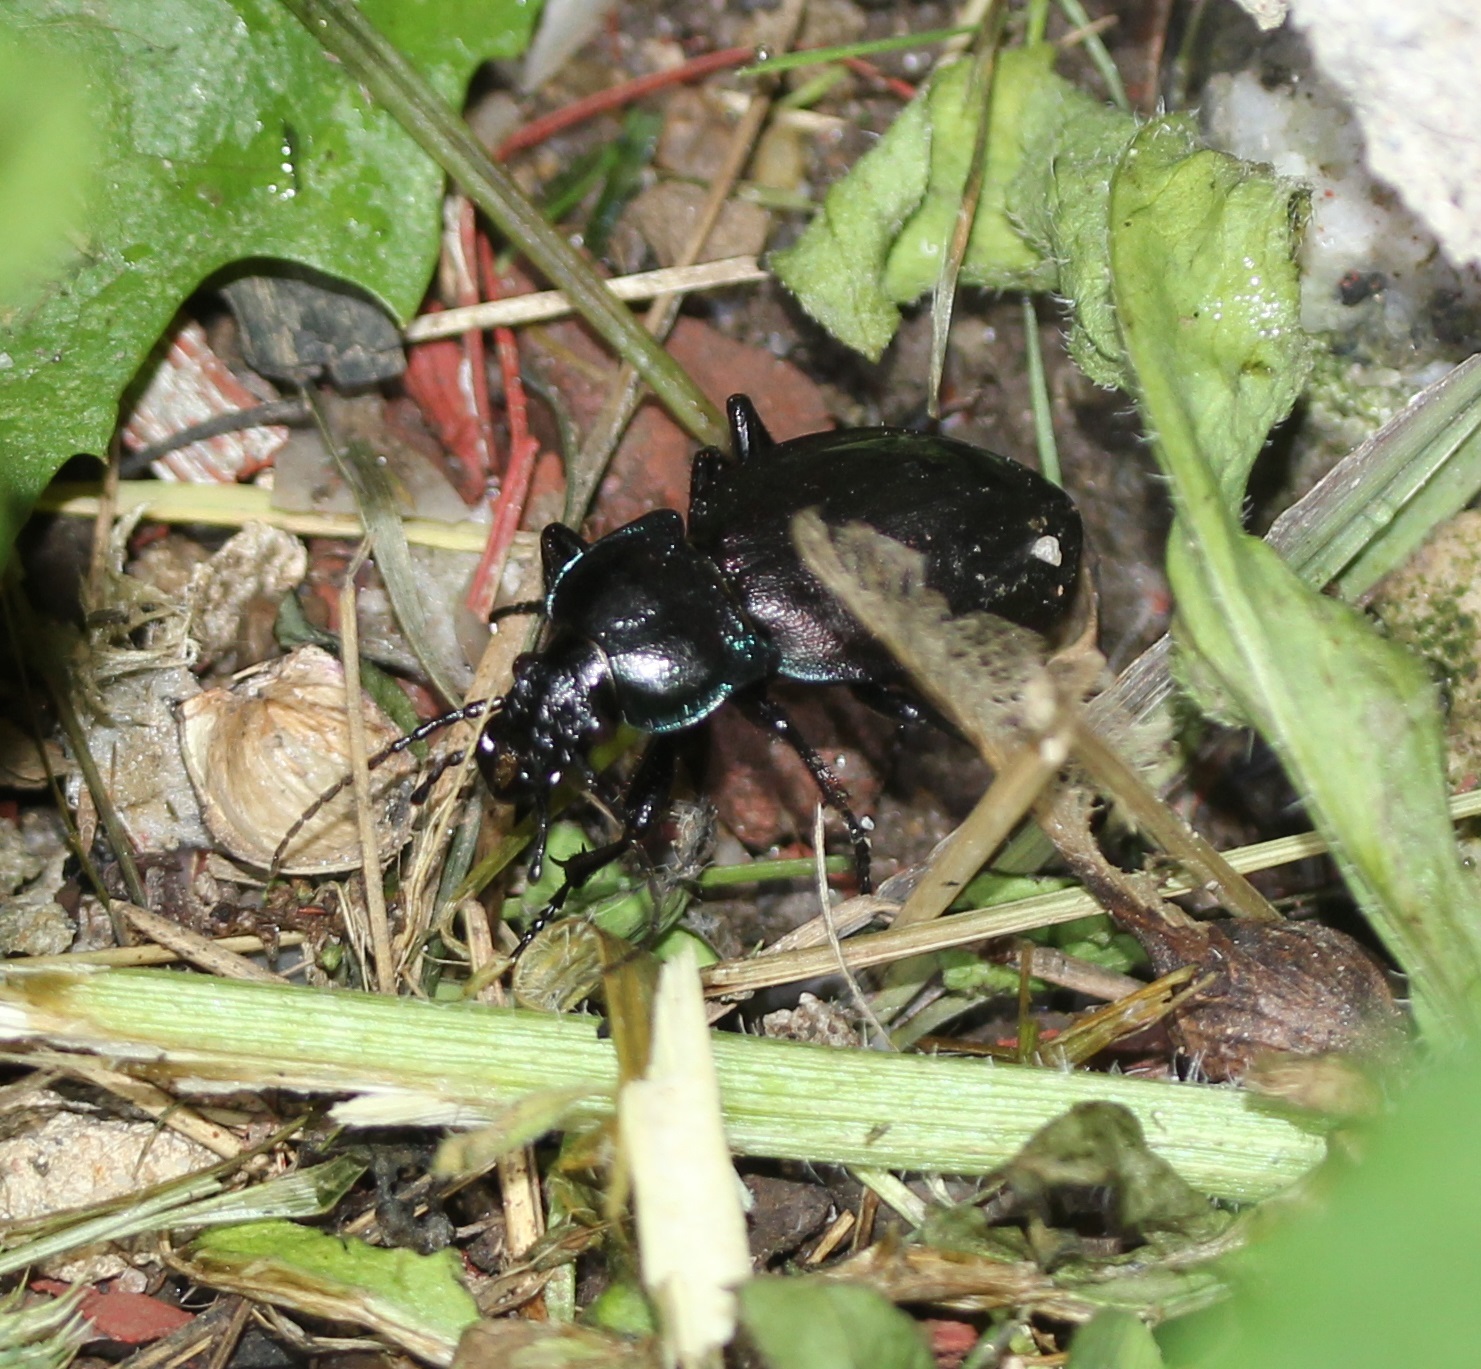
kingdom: Animalia
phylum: Arthropoda
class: Insecta
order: Coleoptera
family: Carabidae
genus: Carabus
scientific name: Carabus nemoralis
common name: European ground beetle
